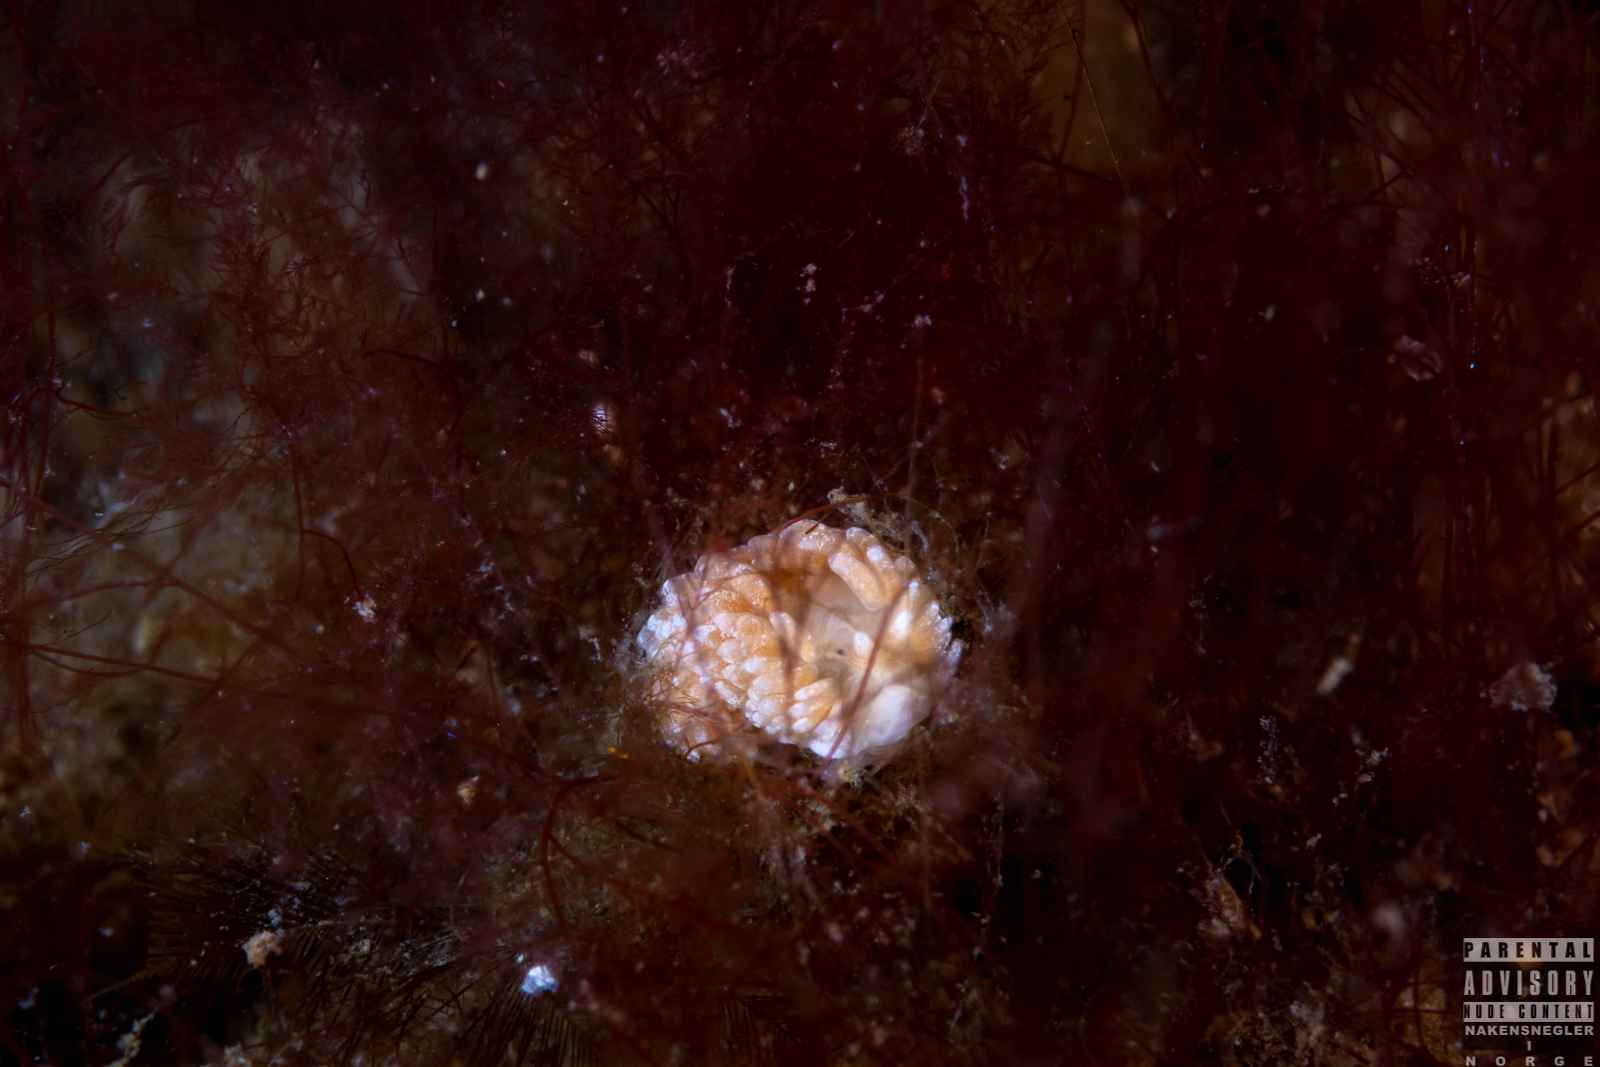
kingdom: Animalia
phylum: Mollusca
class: Gastropoda
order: Nudibranchia
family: Aeolidiidae
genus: Aeolidiella
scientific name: Aeolidiella glauca
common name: Orange-brown aeolid
